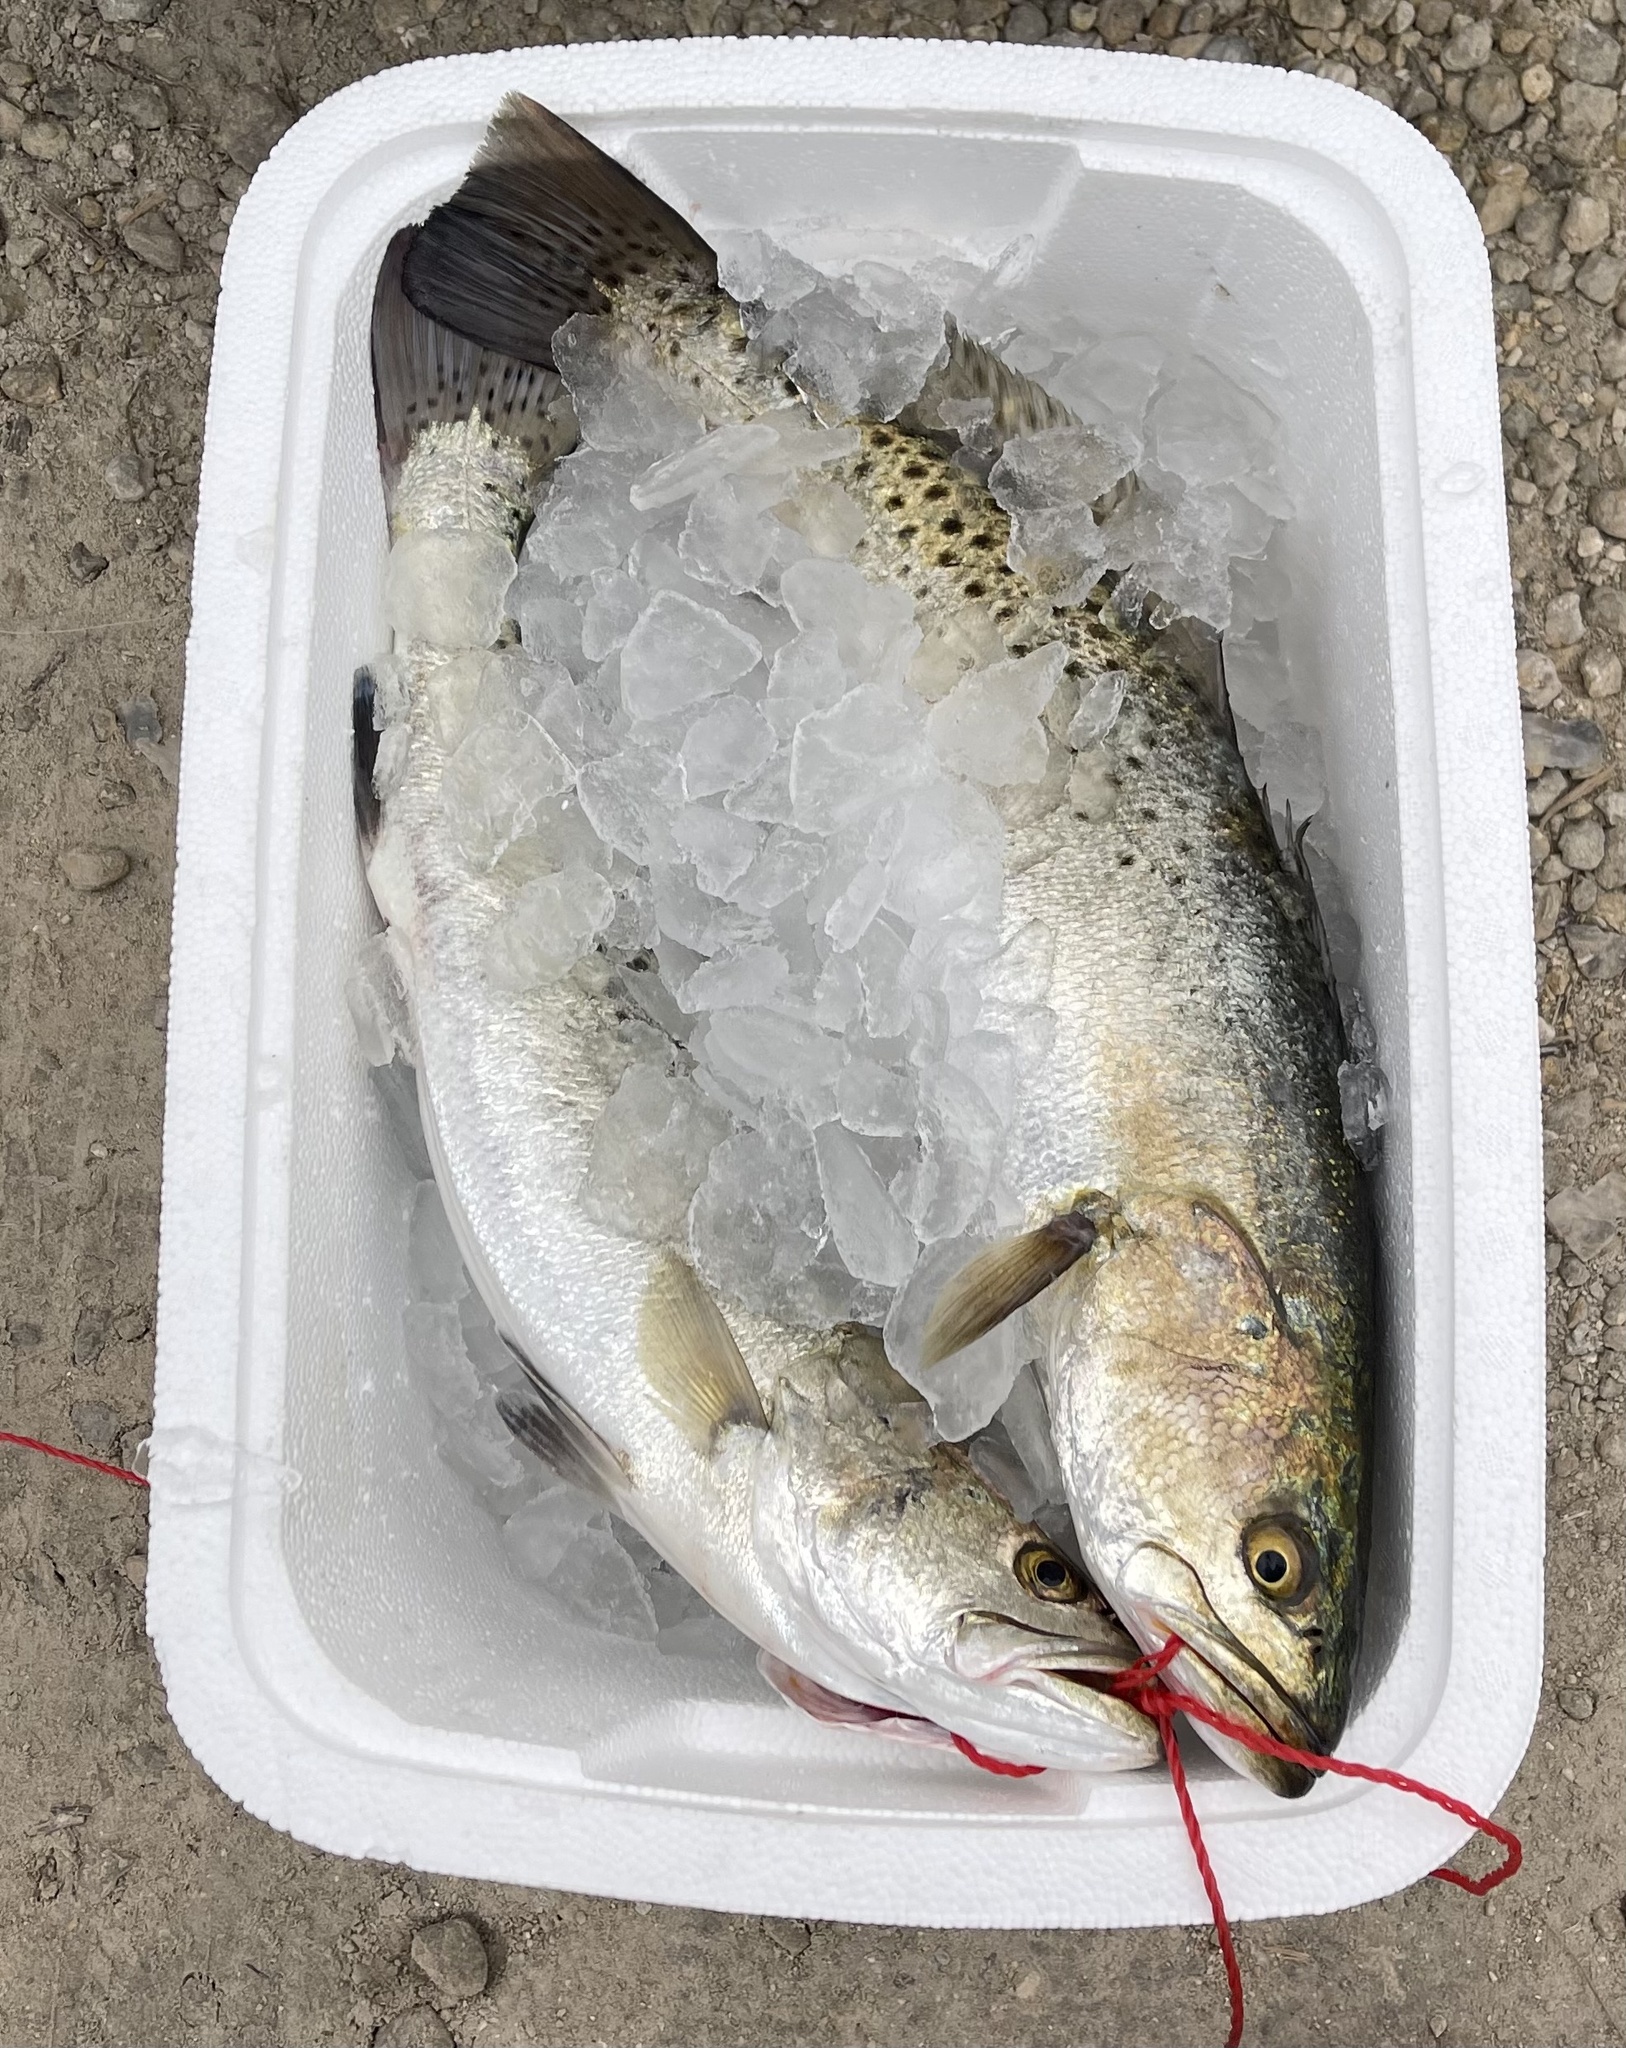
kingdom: Animalia
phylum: Chordata
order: Perciformes
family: Sciaenidae
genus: Cynoscion
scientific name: Cynoscion nebulosus
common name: Spotted seatrout
